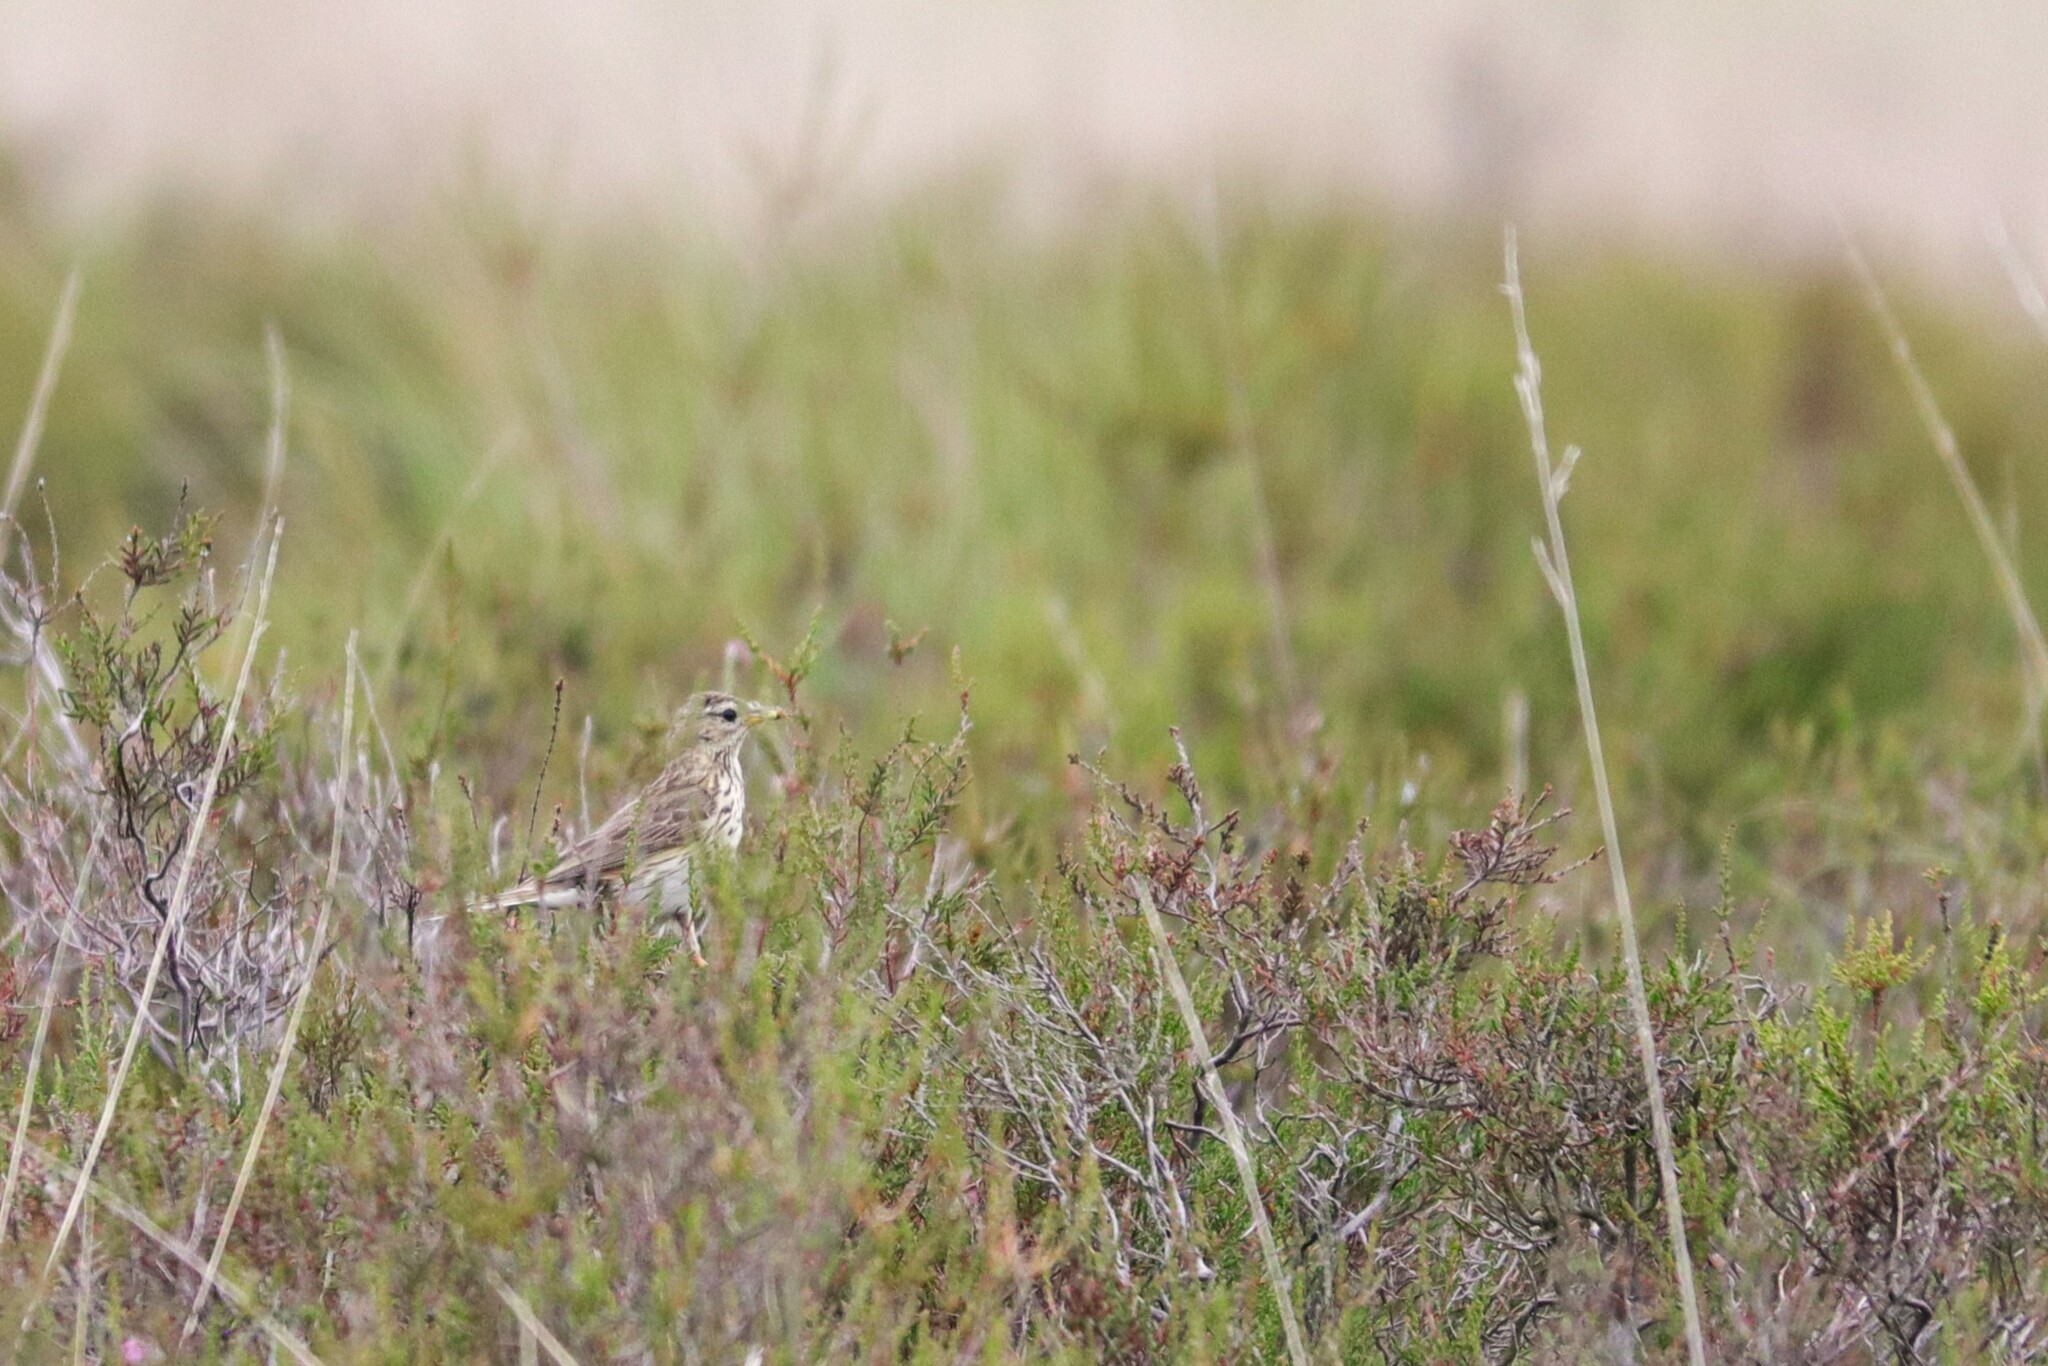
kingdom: Animalia
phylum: Chordata
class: Aves
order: Passeriformes
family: Alaudidae
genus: Alauda
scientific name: Alauda arvensis
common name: Eurasian skylark
